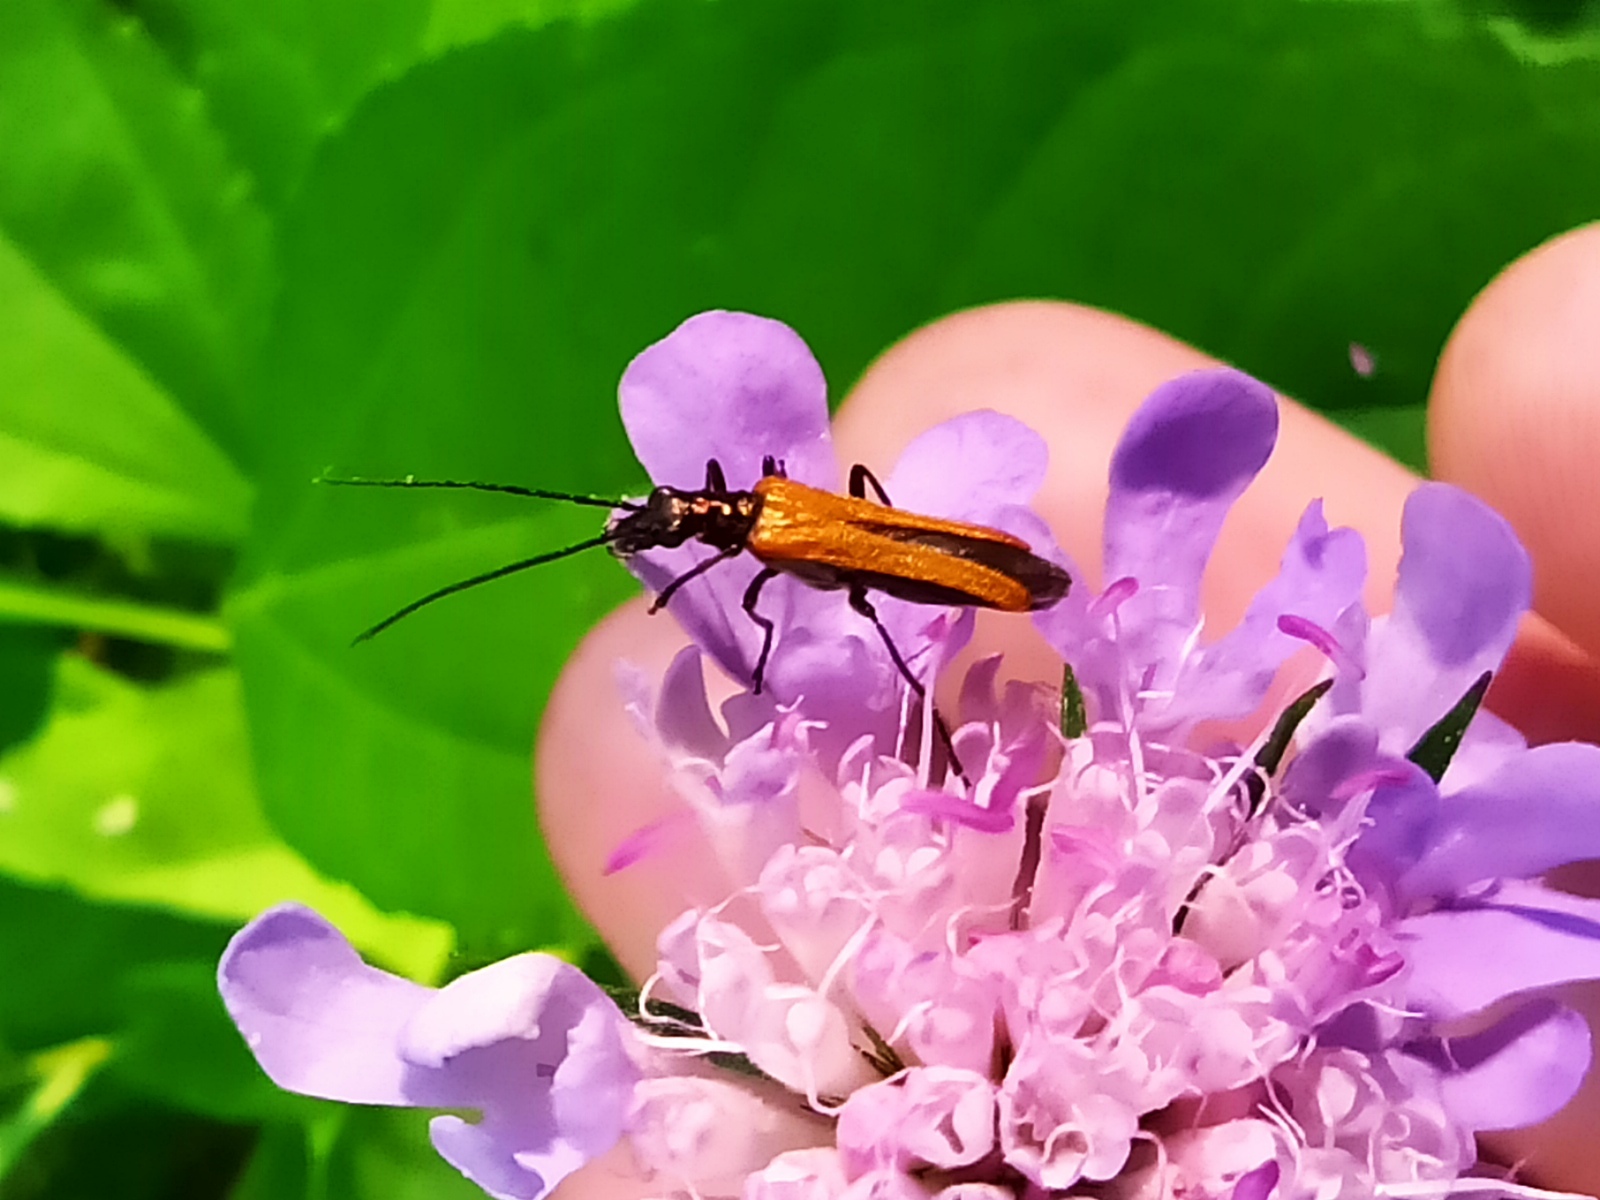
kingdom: Animalia
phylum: Arthropoda
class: Insecta
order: Coleoptera
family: Oedemeridae
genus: Oedemera
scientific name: Oedemera femorata
